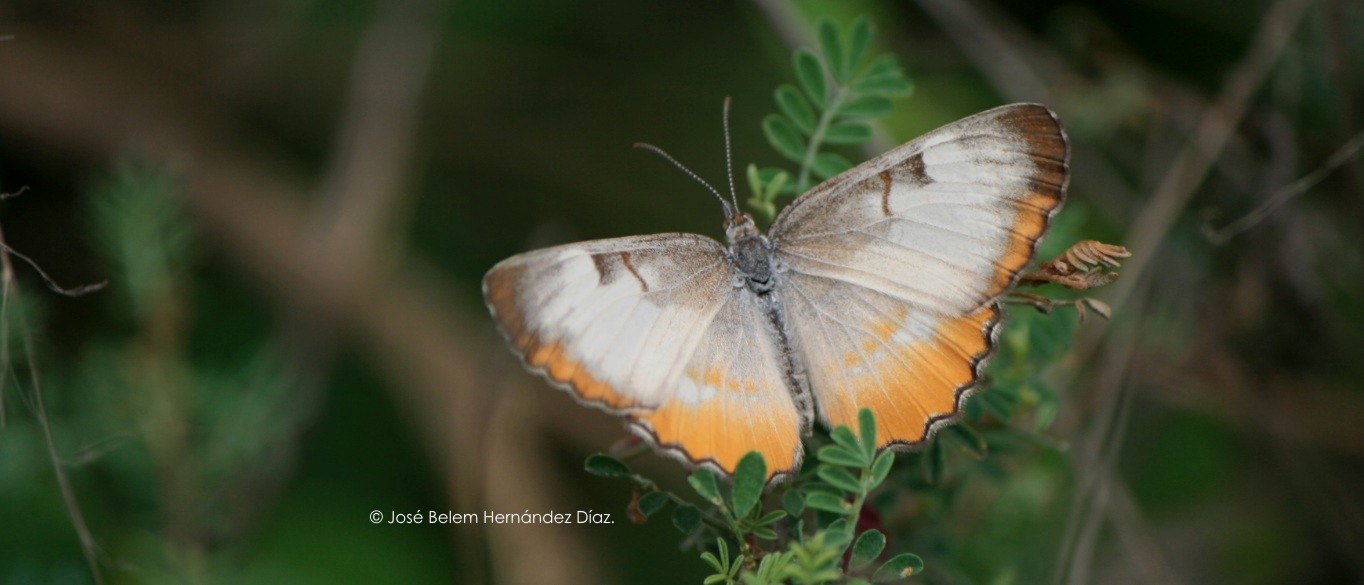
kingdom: Animalia
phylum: Arthropoda
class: Insecta
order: Lepidoptera
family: Nymphalidae
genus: Mestra
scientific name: Mestra amymone
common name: Common mestra
